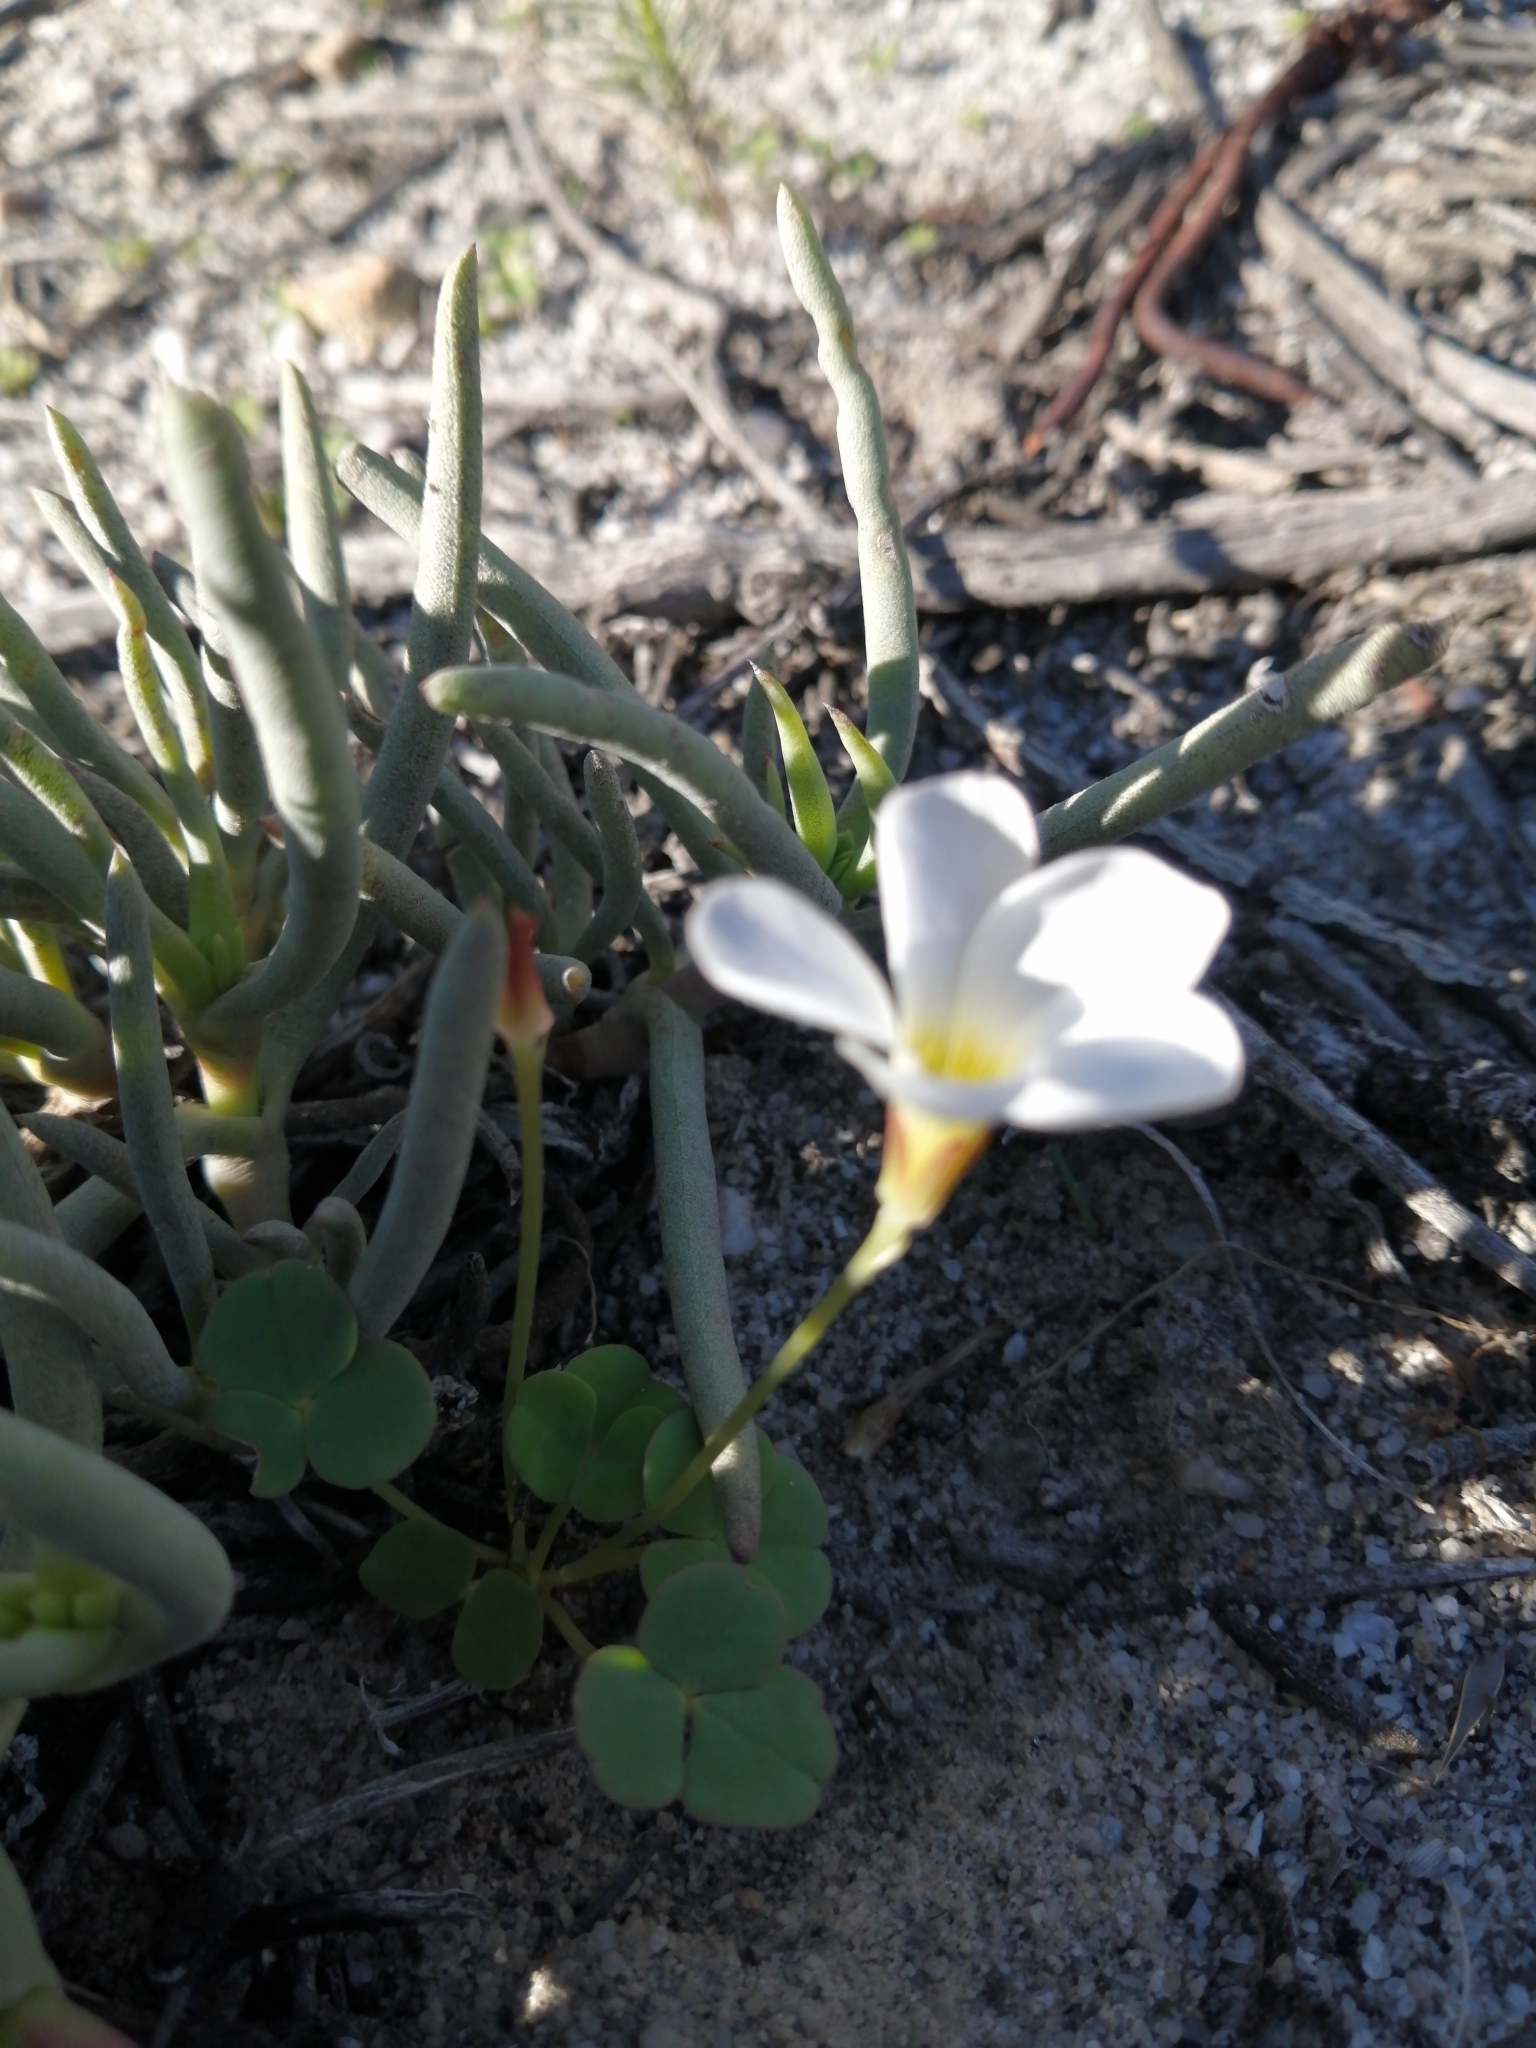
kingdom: Plantae
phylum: Tracheophyta
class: Magnoliopsida
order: Oxalidales
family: Oxalidaceae
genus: Oxalis
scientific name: Oxalis depressa
